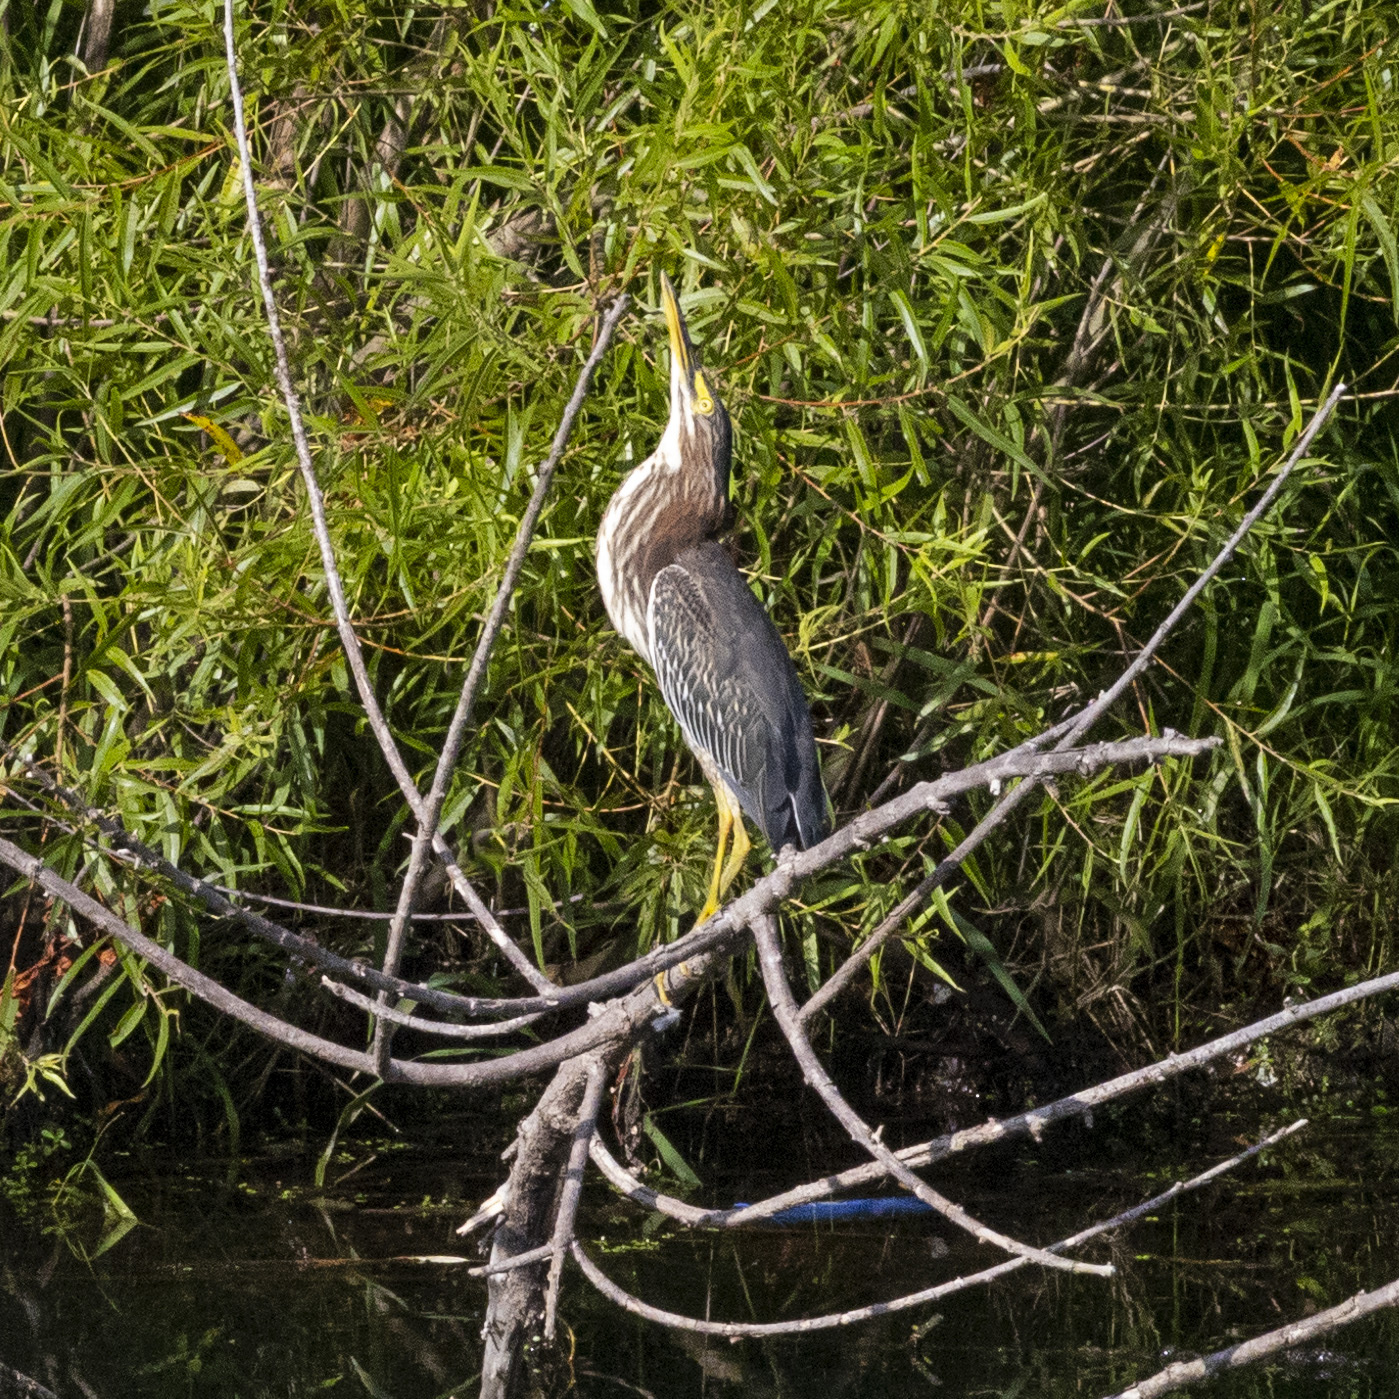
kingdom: Animalia
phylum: Chordata
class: Aves
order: Pelecaniformes
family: Ardeidae
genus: Butorides
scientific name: Butorides virescens
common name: Green heron
